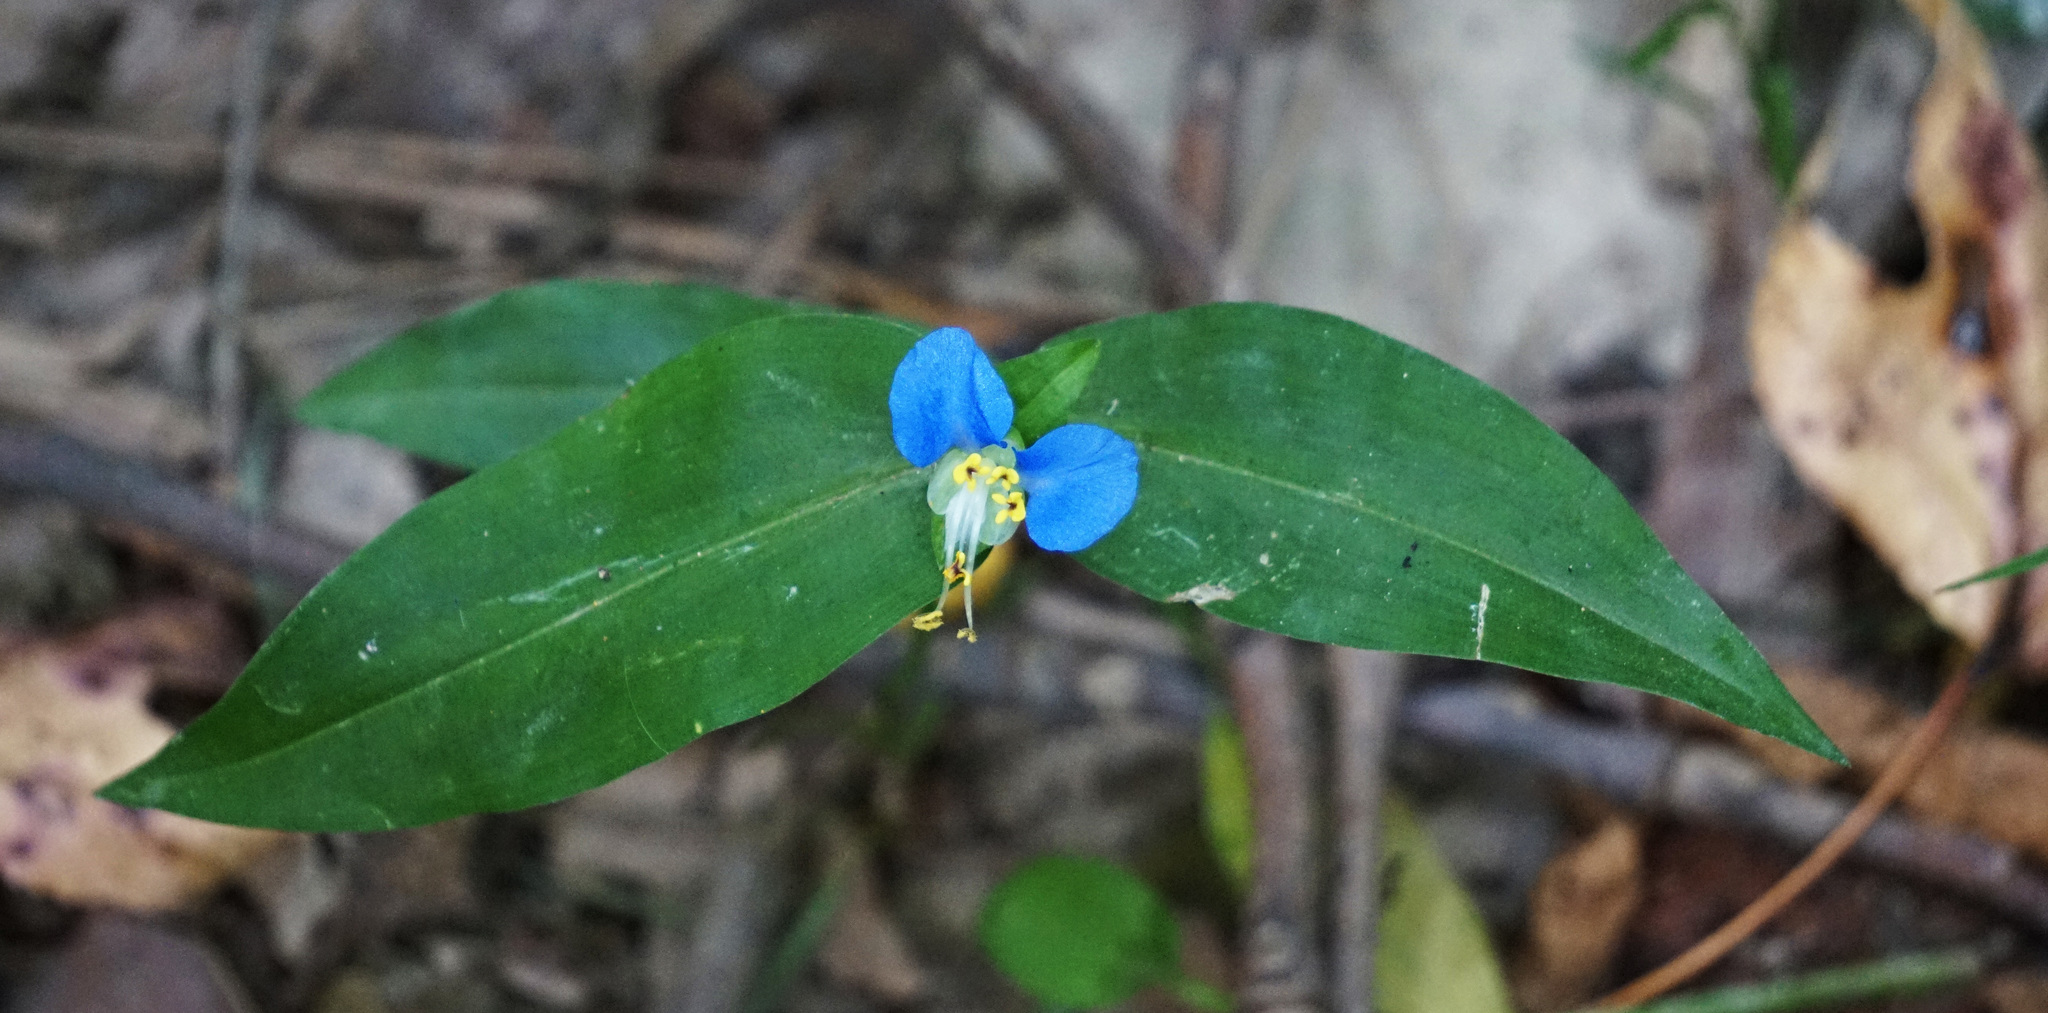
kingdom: Plantae
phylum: Tracheophyta
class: Liliopsida
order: Commelinales
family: Commelinaceae
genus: Commelina
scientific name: Commelina communis
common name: Asiatic dayflower
